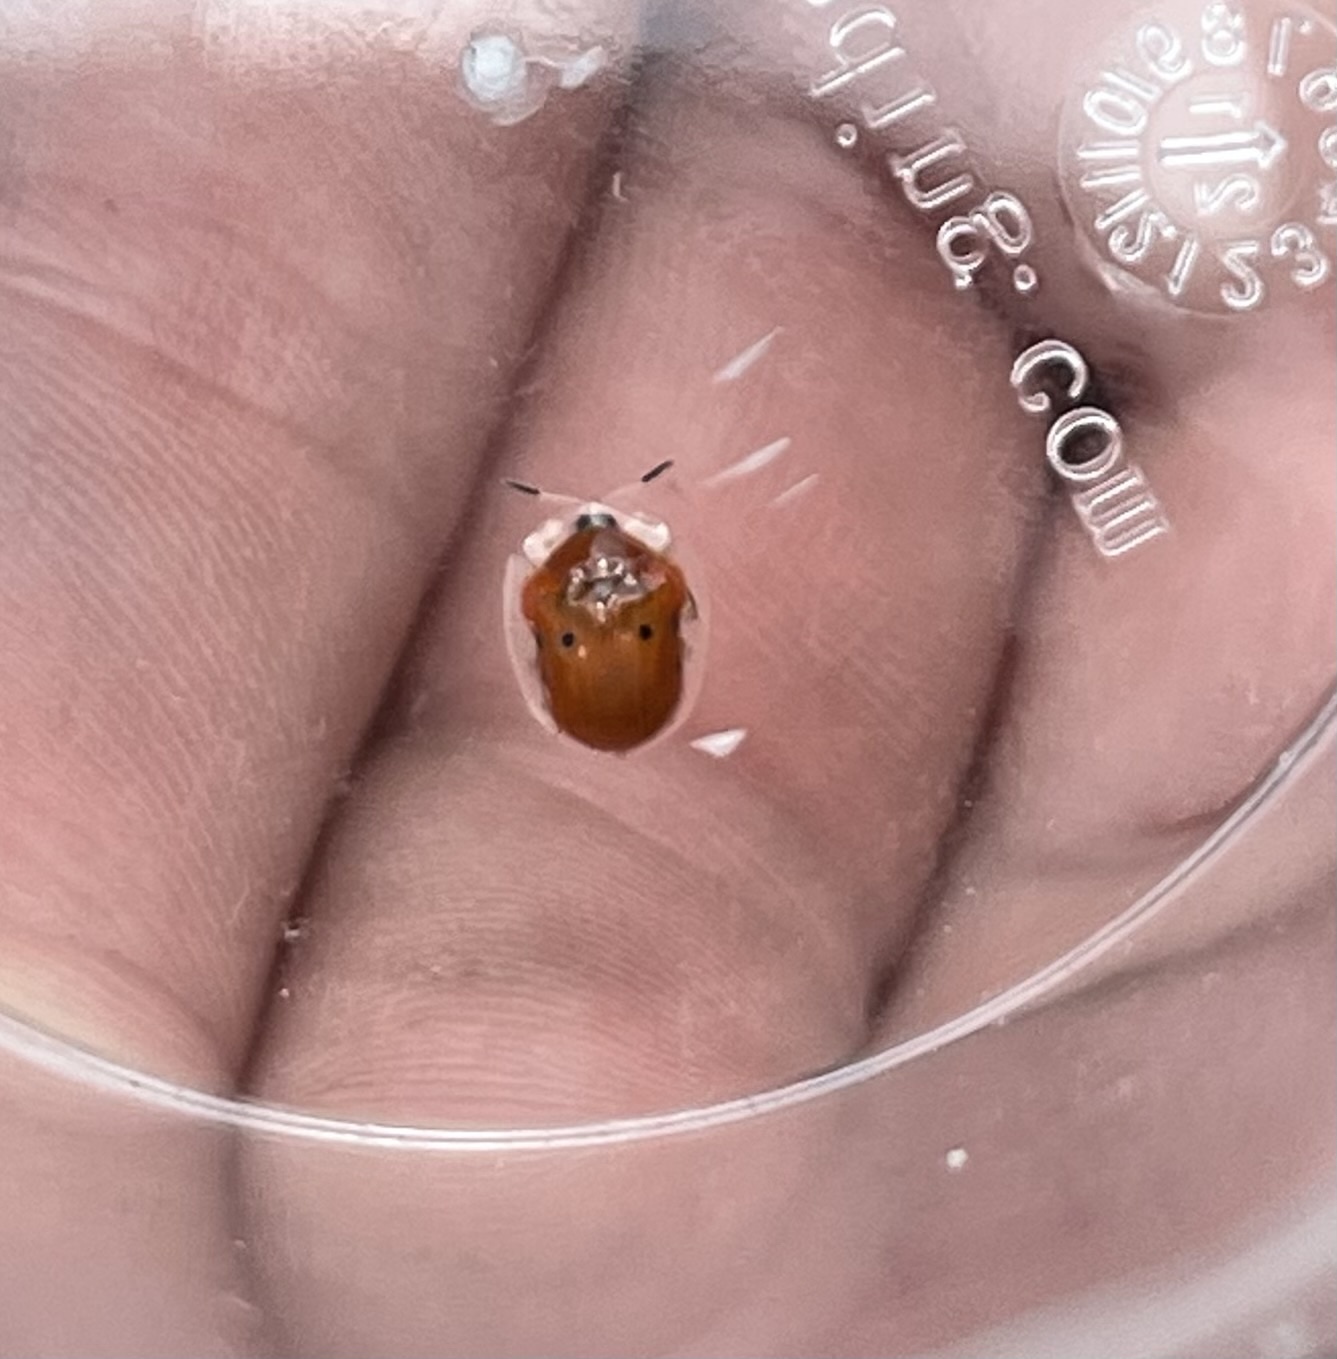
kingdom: Animalia
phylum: Arthropoda
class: Insecta
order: Coleoptera
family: Chrysomelidae
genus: Charidotella
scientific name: Charidotella sexpunctata
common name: Golden tortoise beetle
